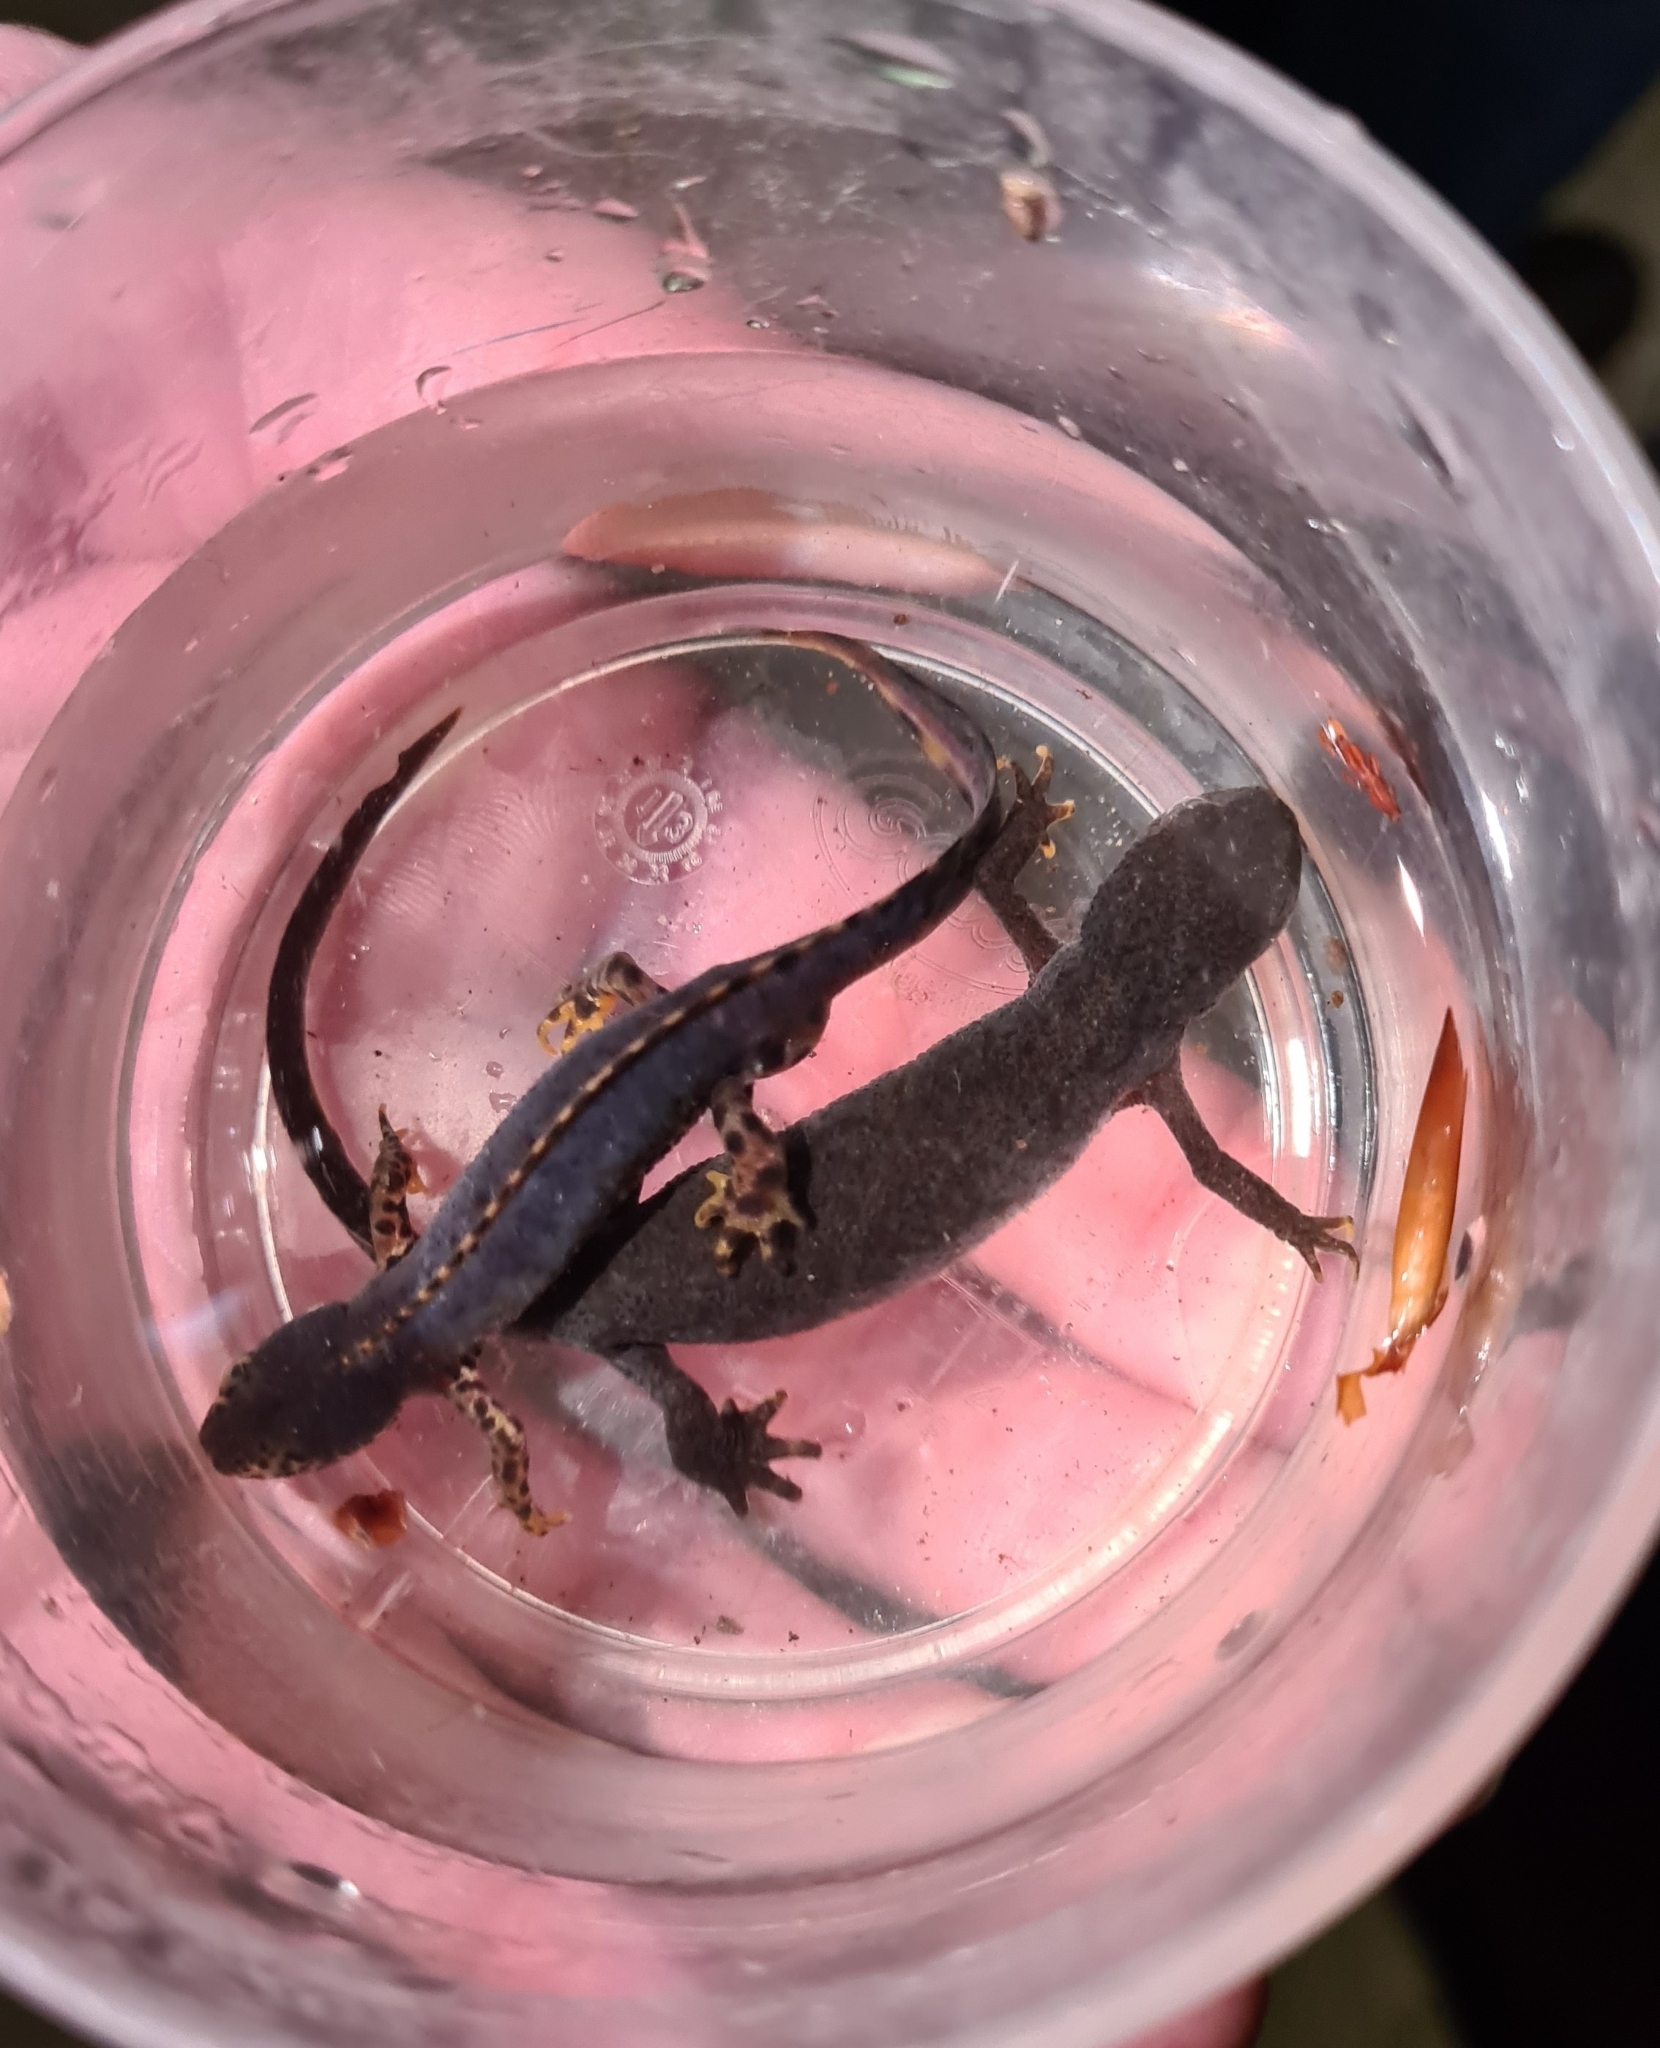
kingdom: Animalia
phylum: Chordata
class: Amphibia
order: Caudata
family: Salamandridae
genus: Ichthyosaura
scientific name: Ichthyosaura alpestris
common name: Alpine newt
